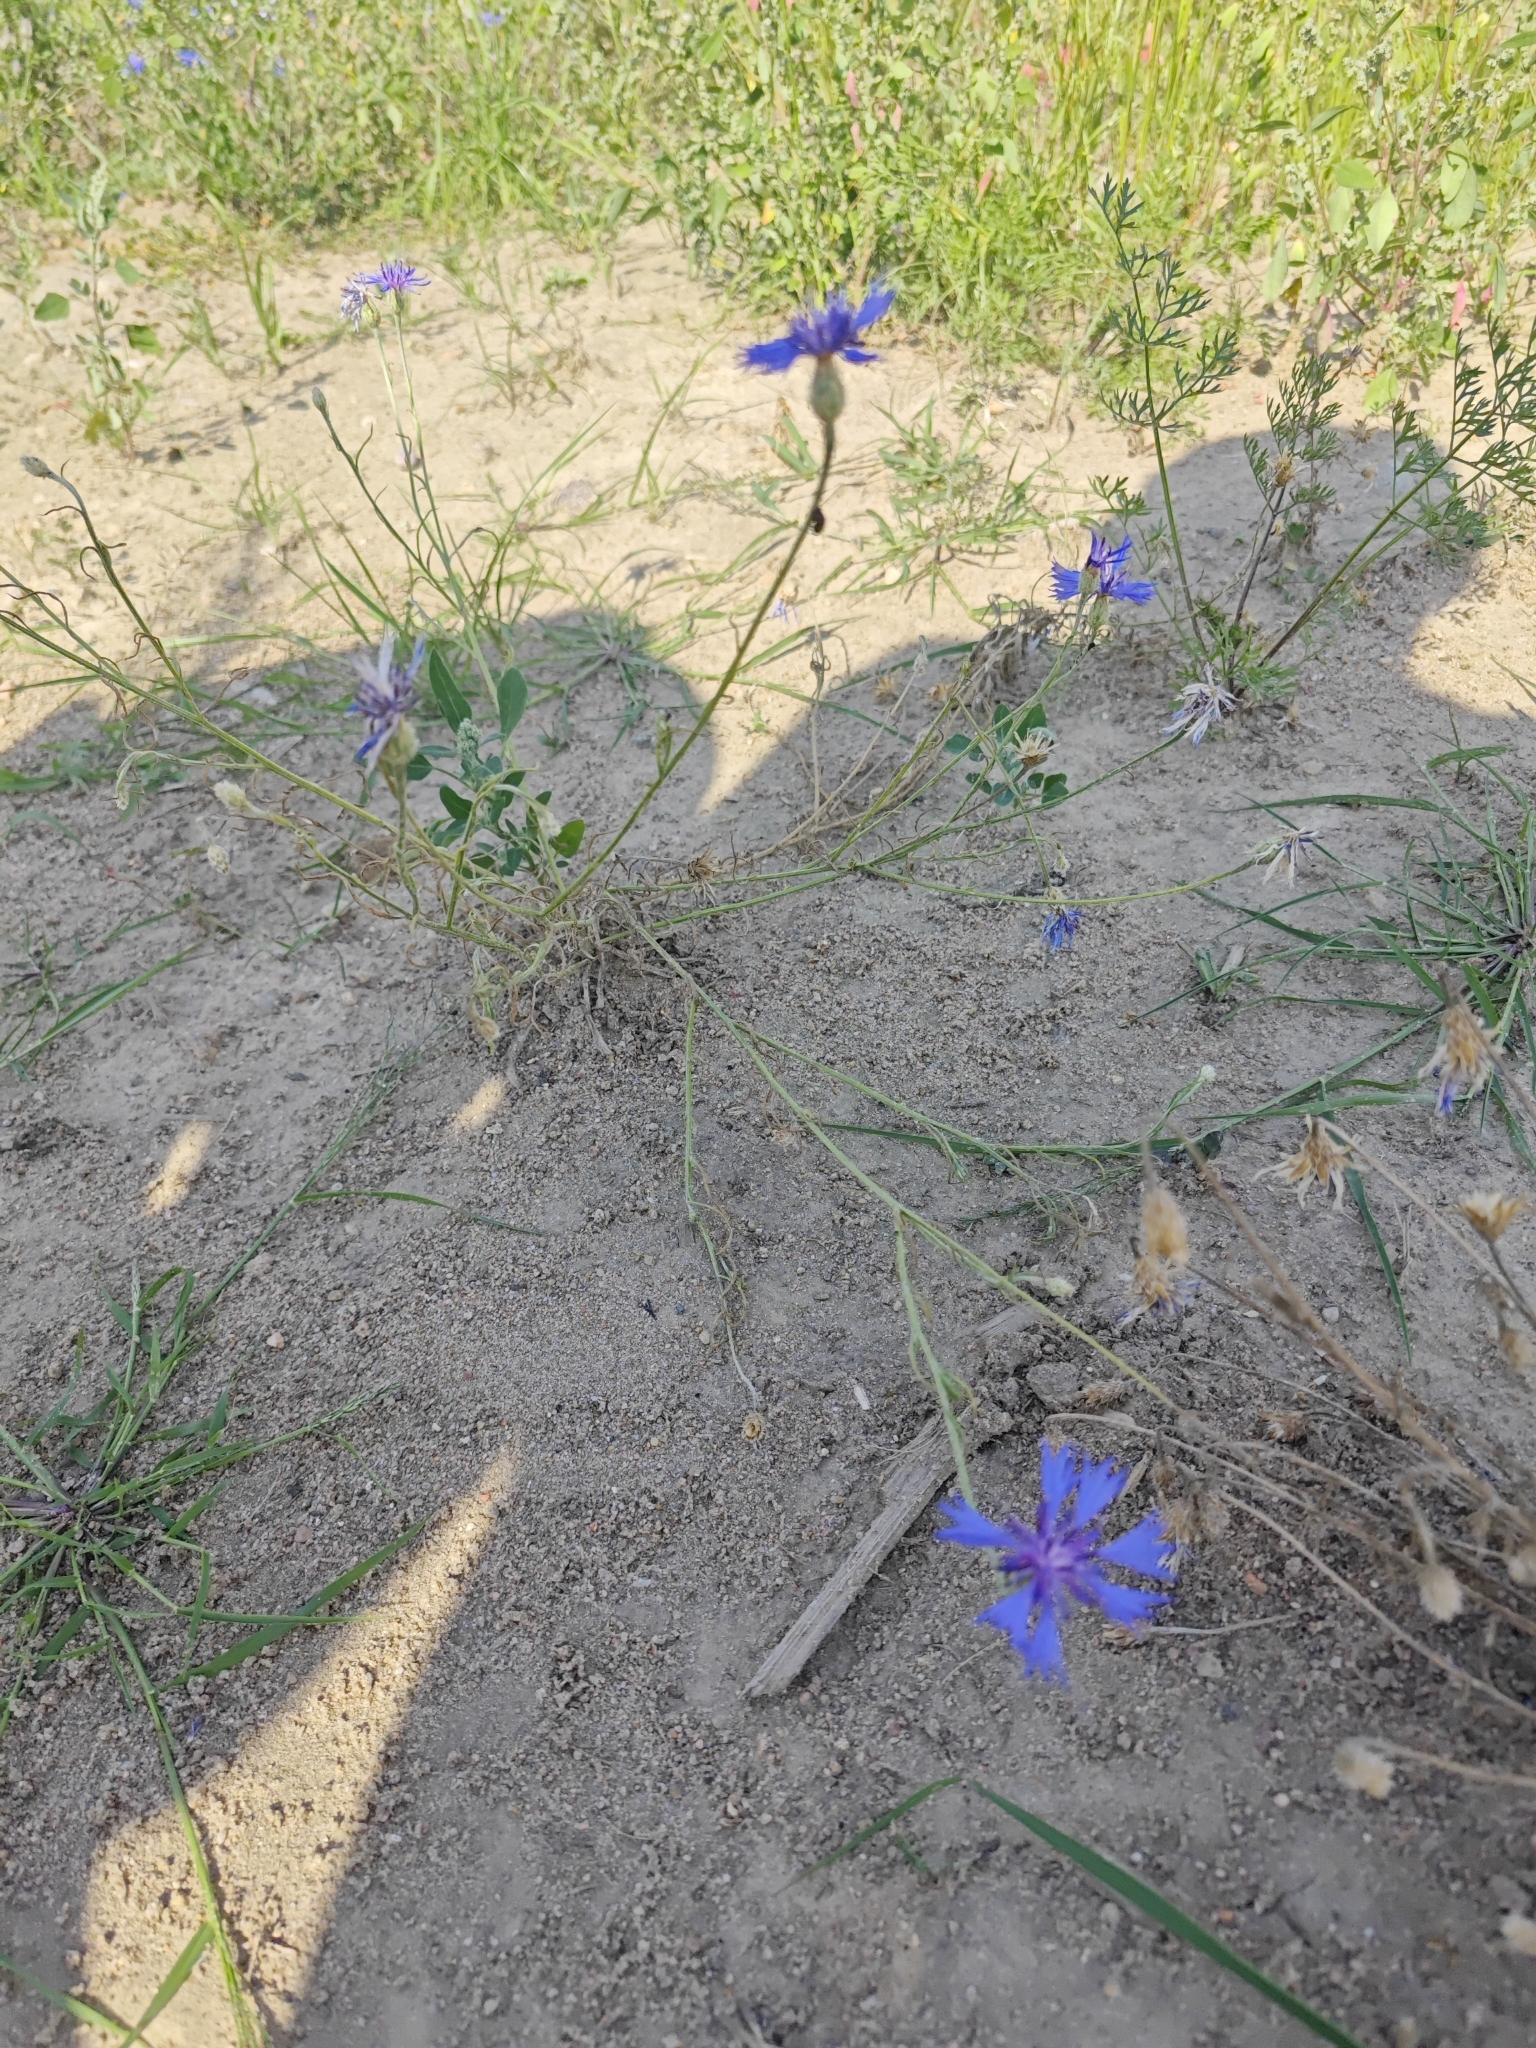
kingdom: Plantae
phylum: Tracheophyta
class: Magnoliopsida
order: Asterales
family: Asteraceae
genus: Centaurea
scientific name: Centaurea cyanus
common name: Cornflower
